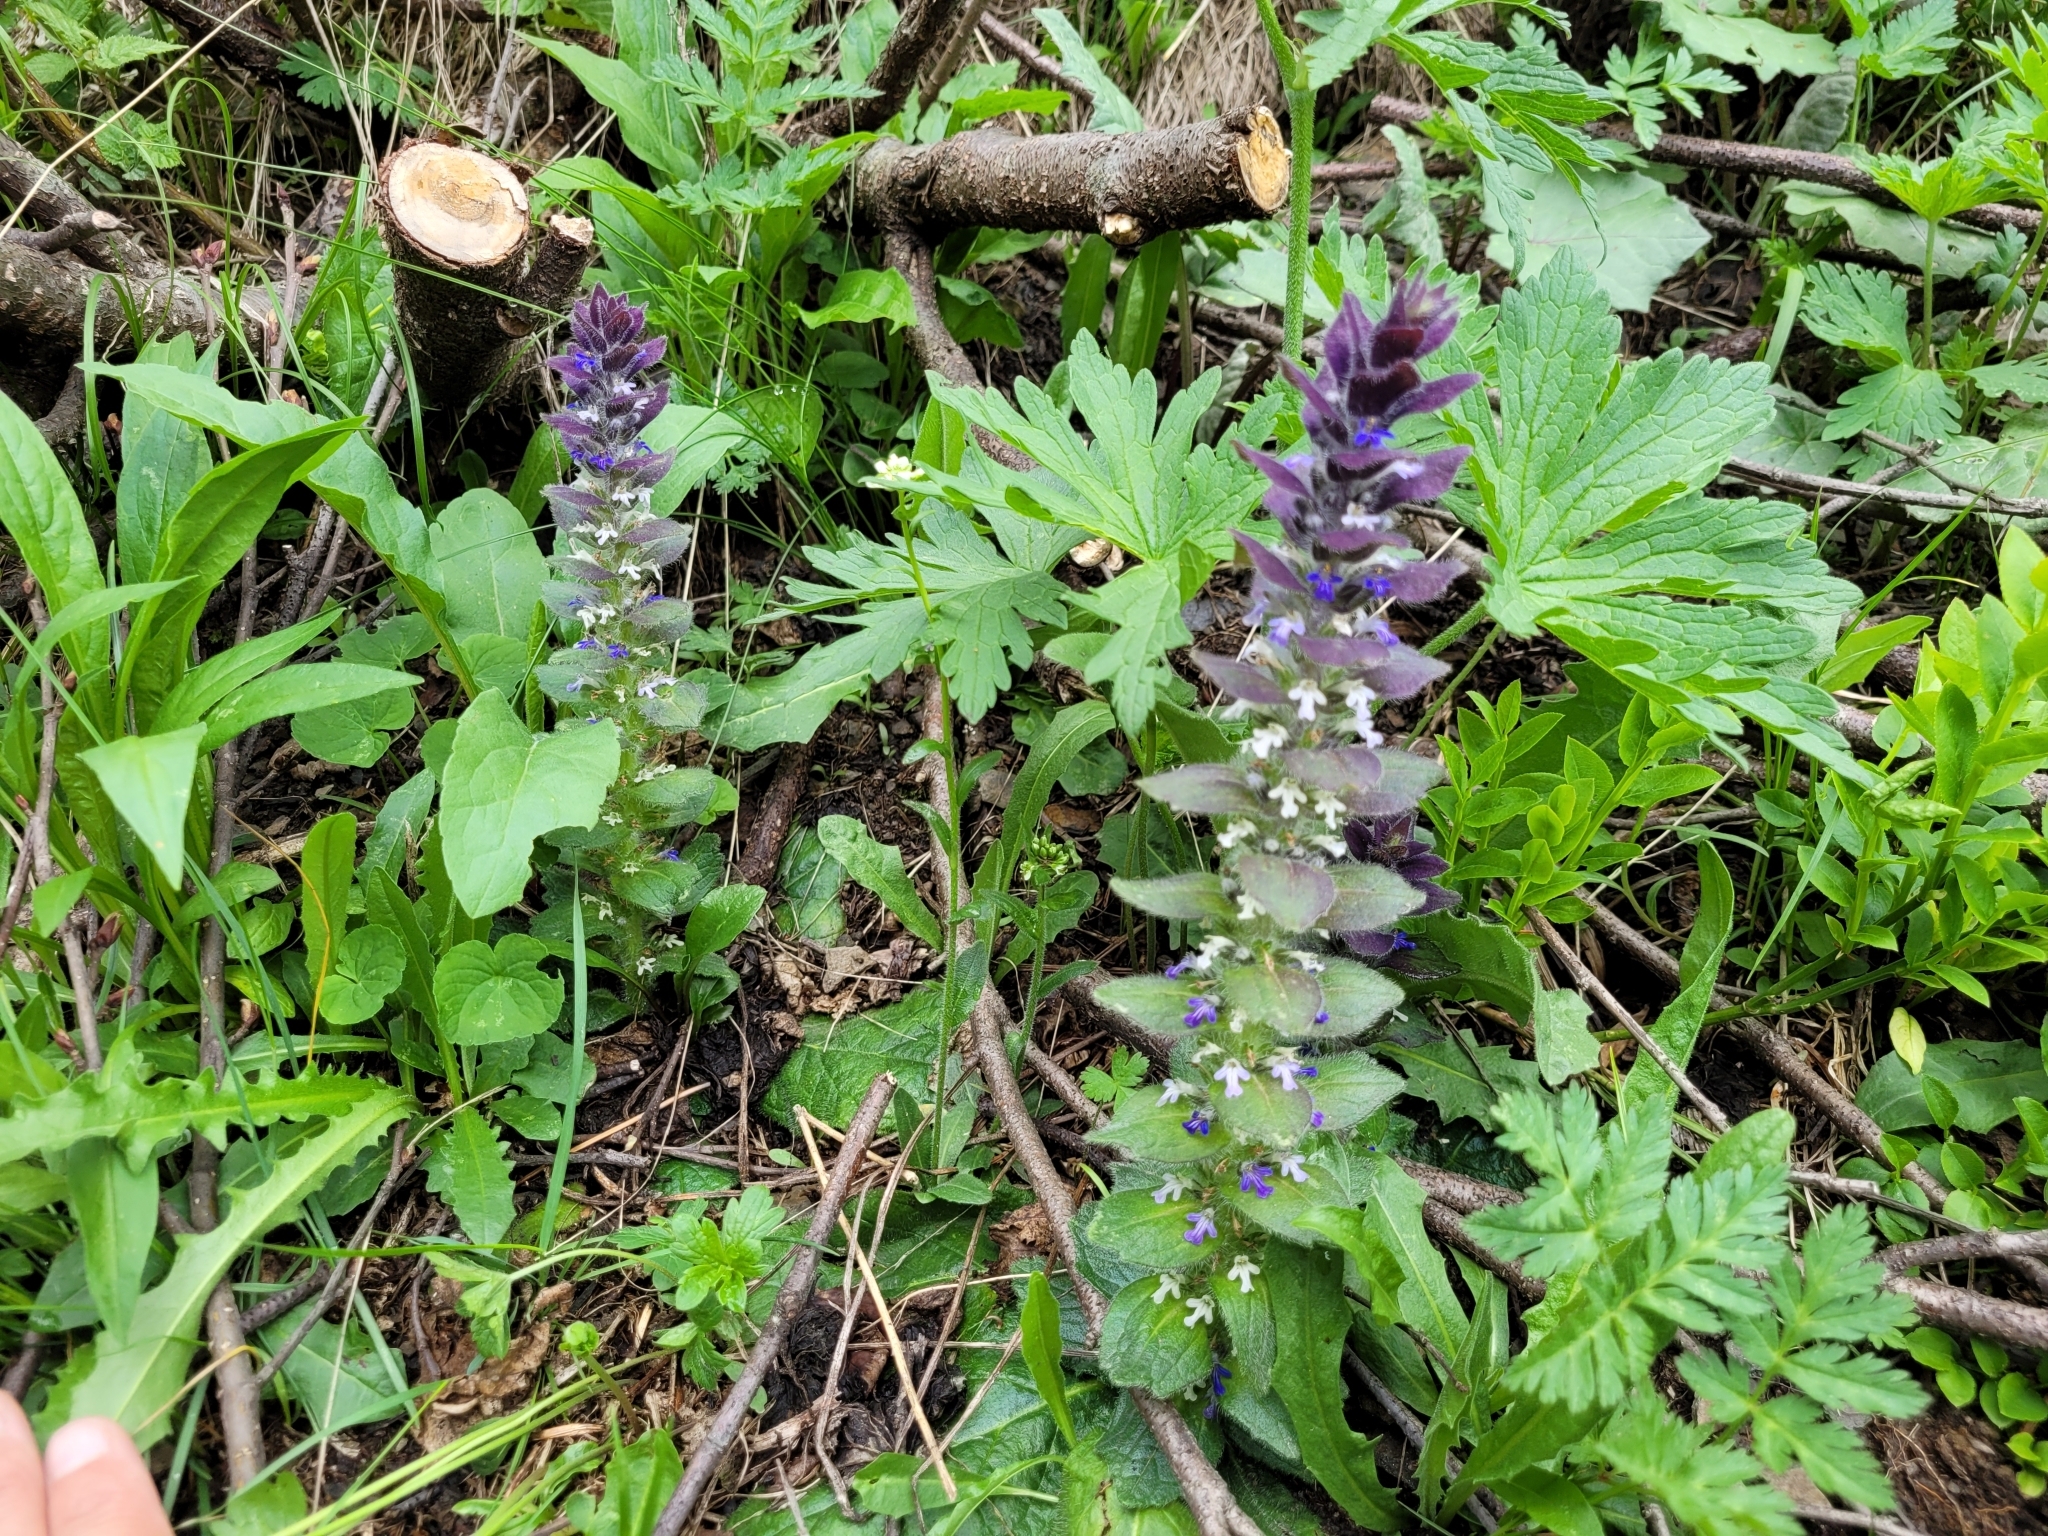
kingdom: Plantae
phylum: Tracheophyta
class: Magnoliopsida
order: Lamiales
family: Lamiaceae
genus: Ajuga
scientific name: Ajuga pyramidalis
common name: Pyramid bugle
